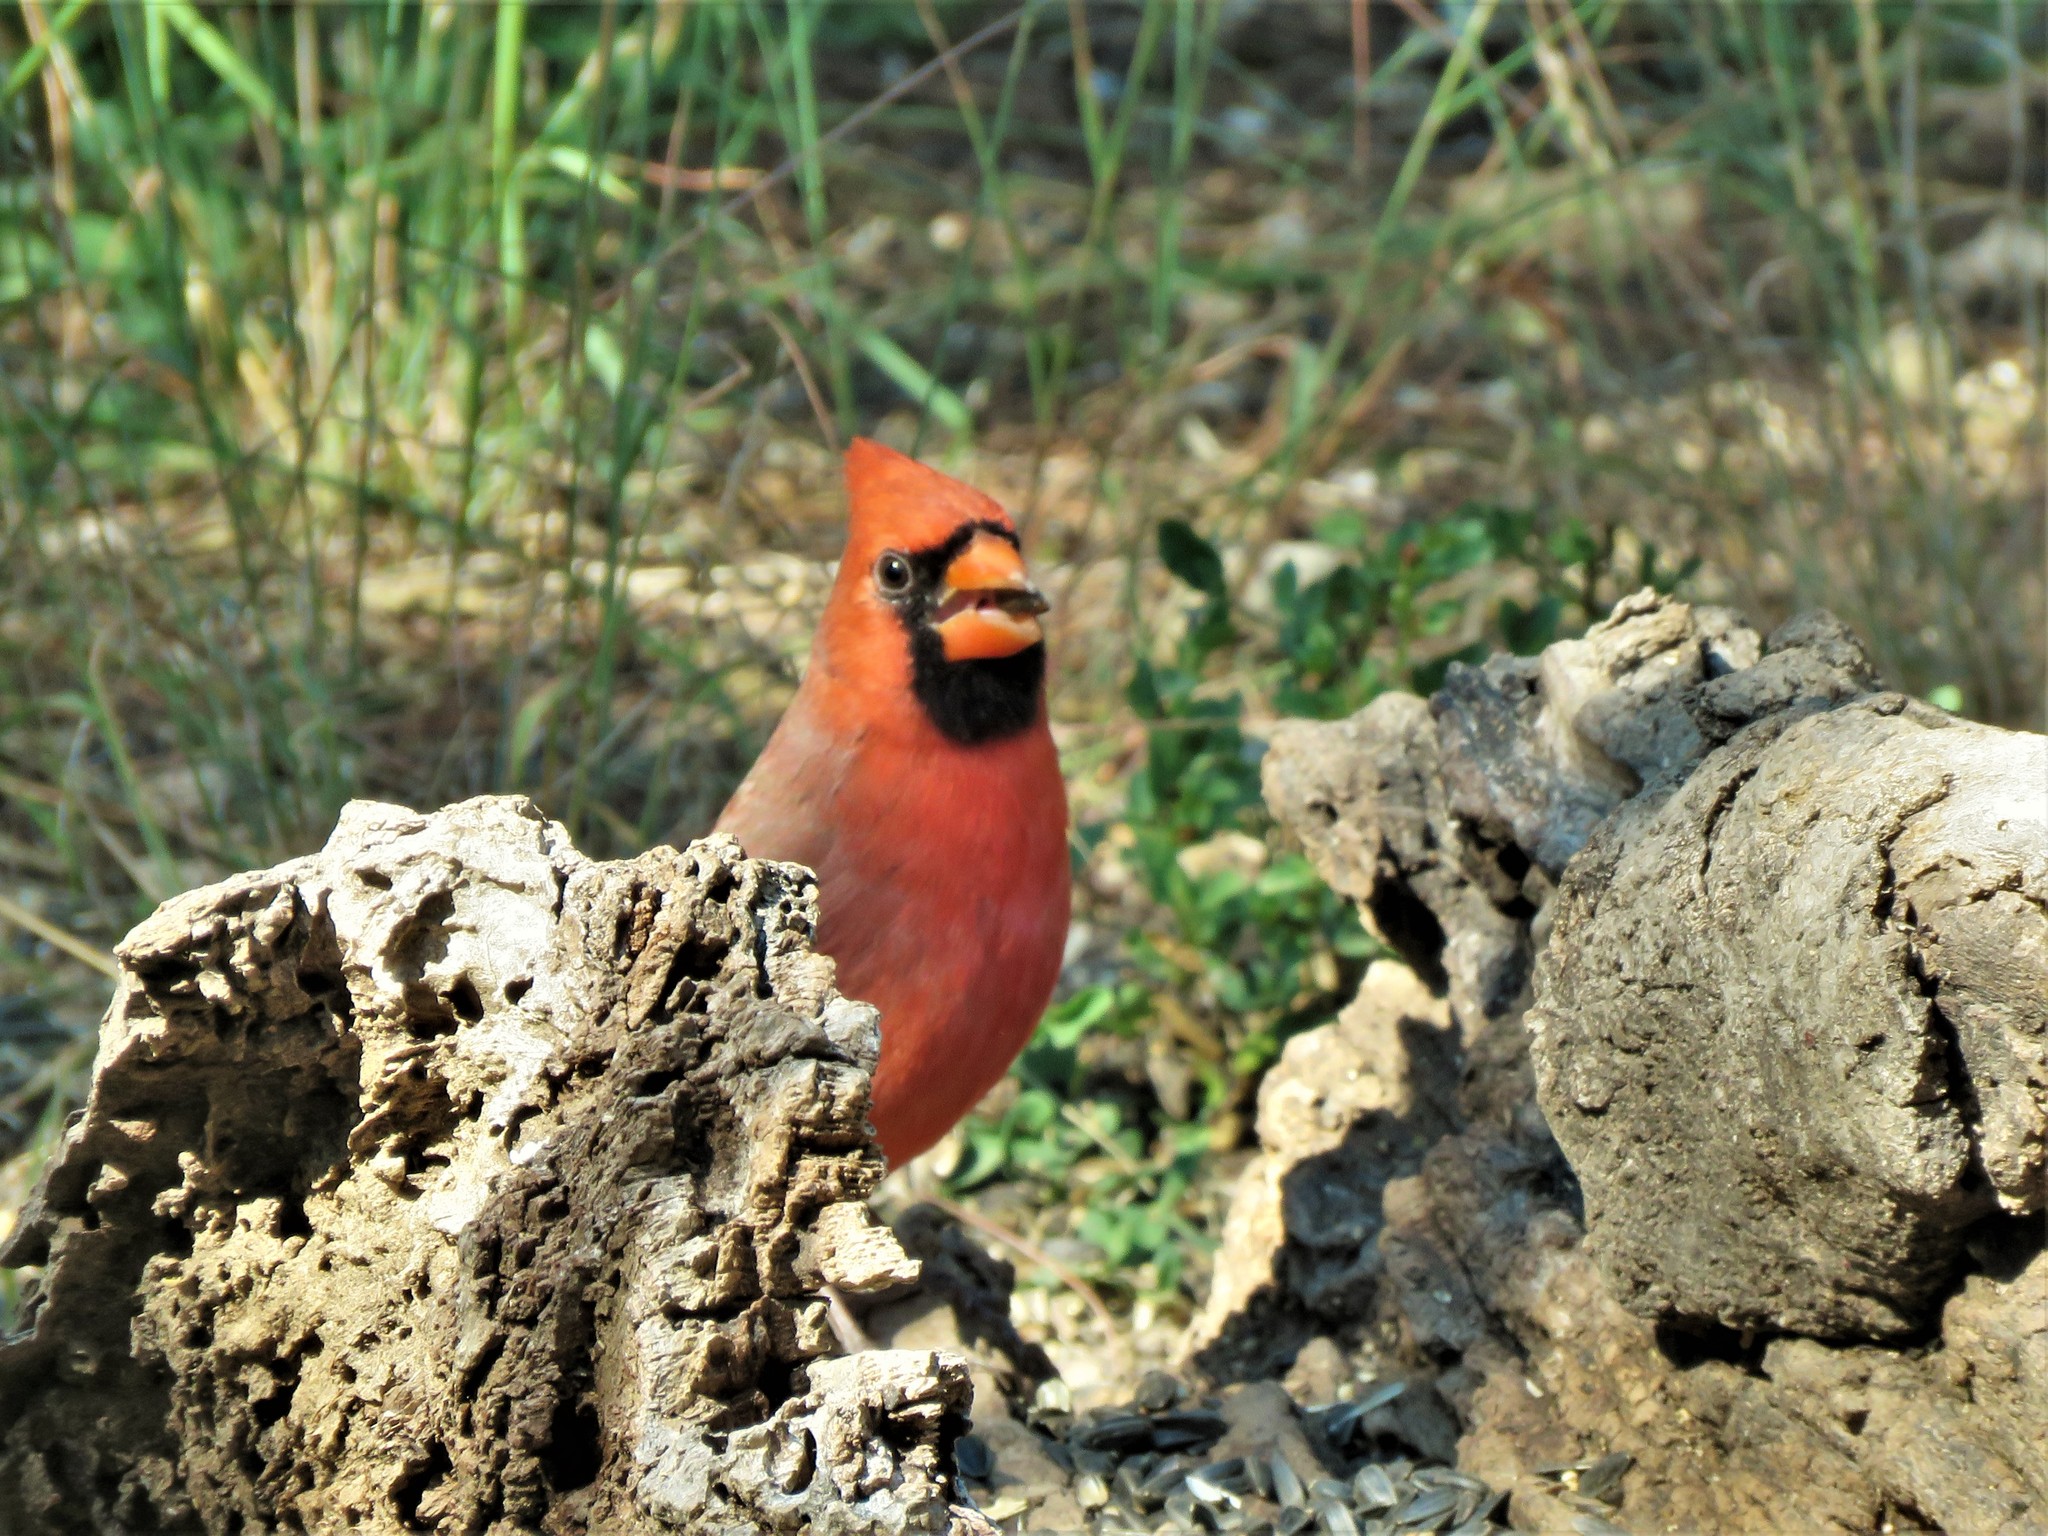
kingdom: Animalia
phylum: Chordata
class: Aves
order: Passeriformes
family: Cardinalidae
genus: Cardinalis
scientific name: Cardinalis cardinalis
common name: Northern cardinal
